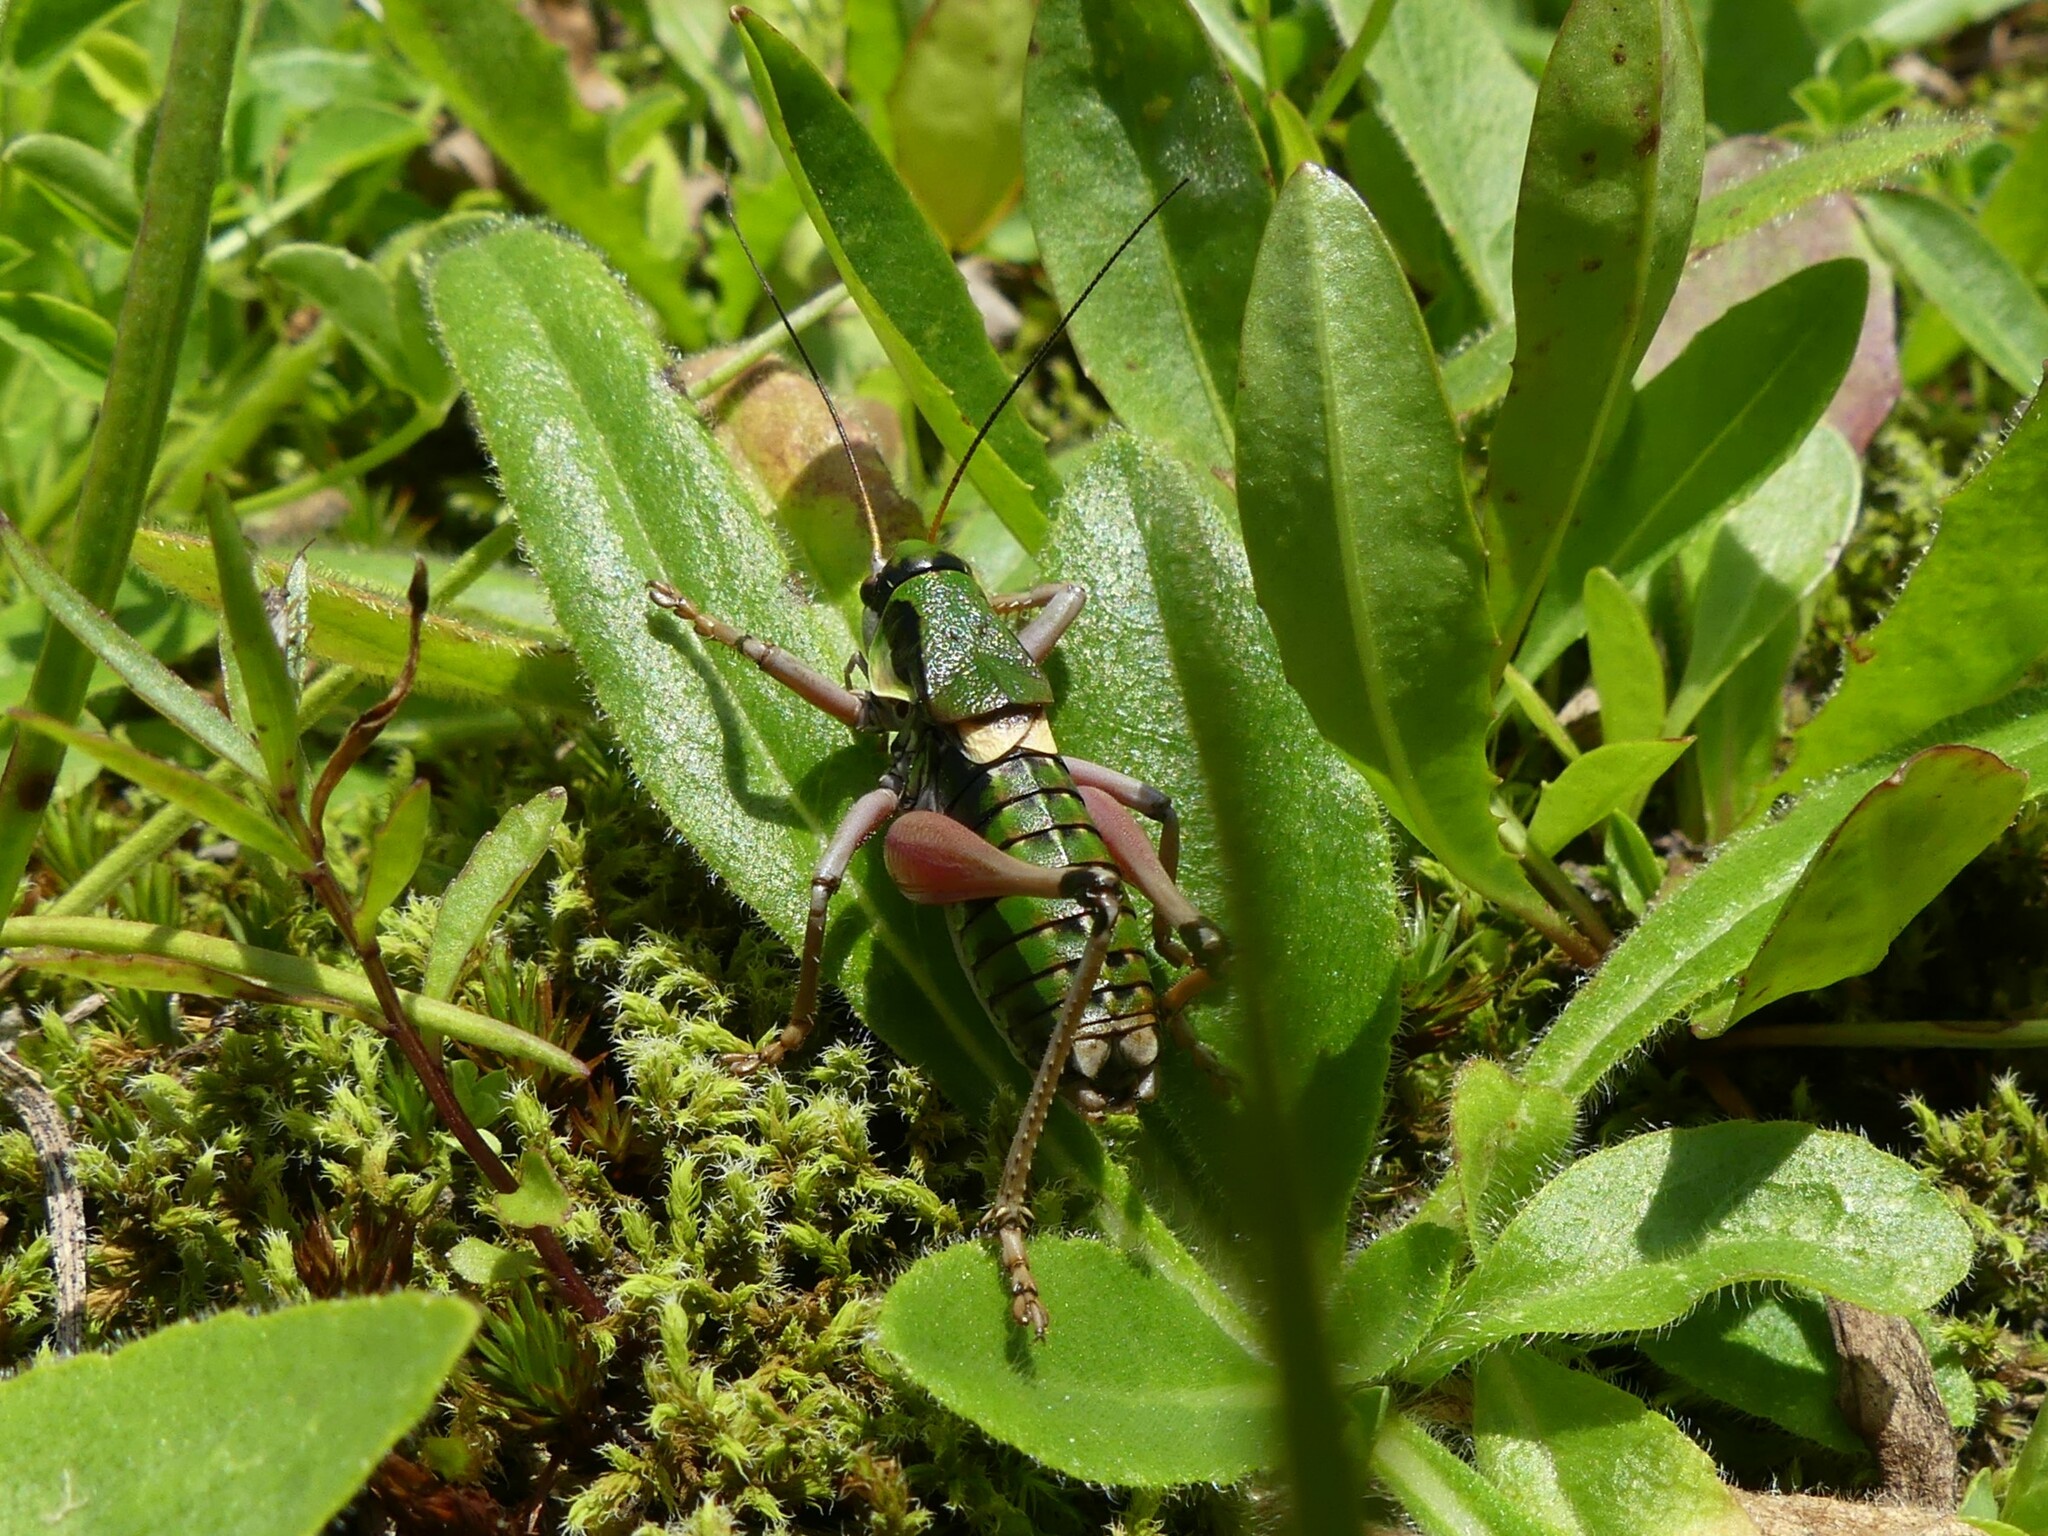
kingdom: Animalia
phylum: Arthropoda
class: Insecta
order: Orthoptera
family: Tettigoniidae
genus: Anonconotus
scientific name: Anonconotus alpinus
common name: Small alpine bush-cricket
